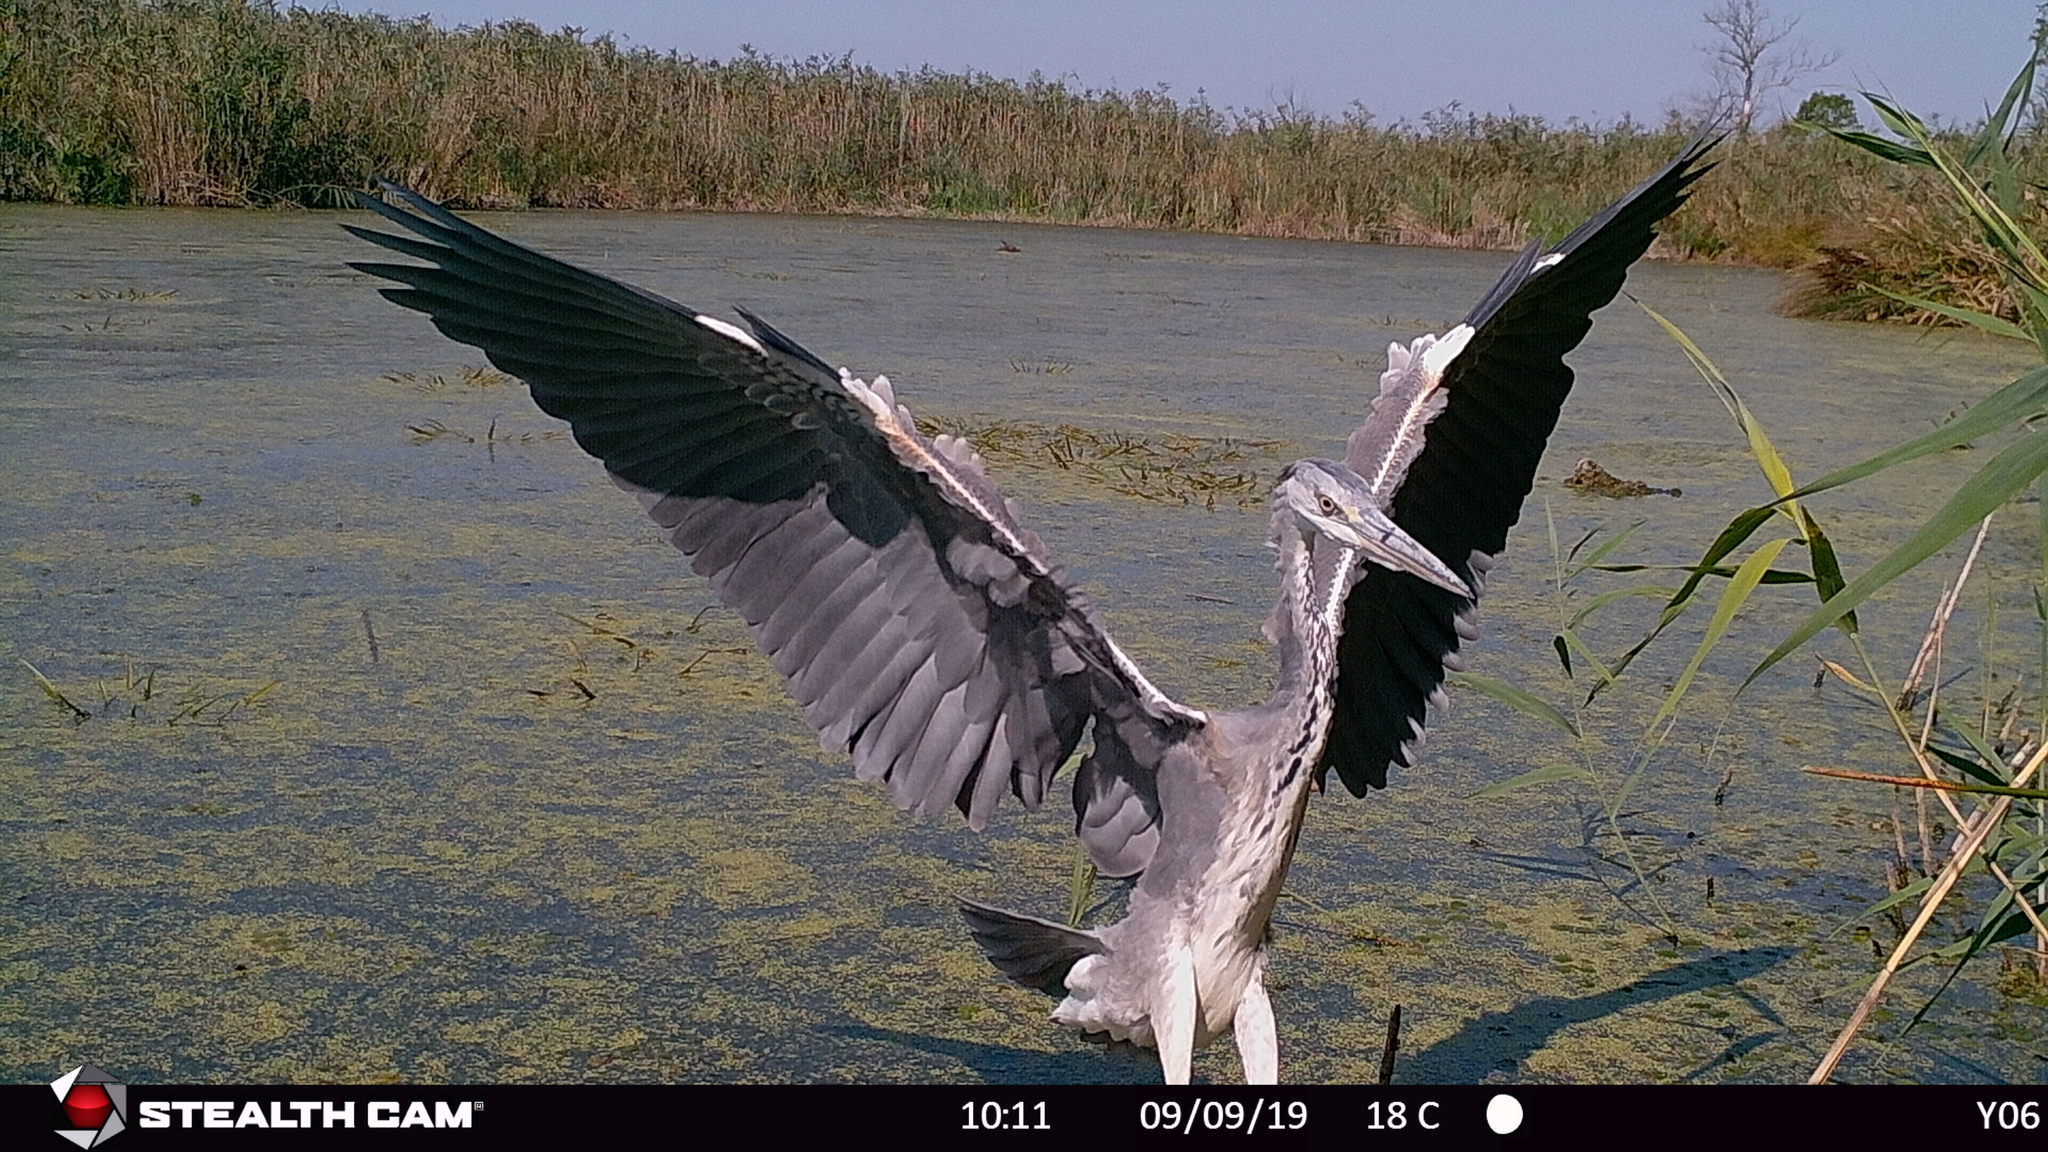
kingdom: Animalia
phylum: Chordata
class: Aves
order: Pelecaniformes
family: Ardeidae
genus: Ardea
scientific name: Ardea cinerea
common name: Grey heron
